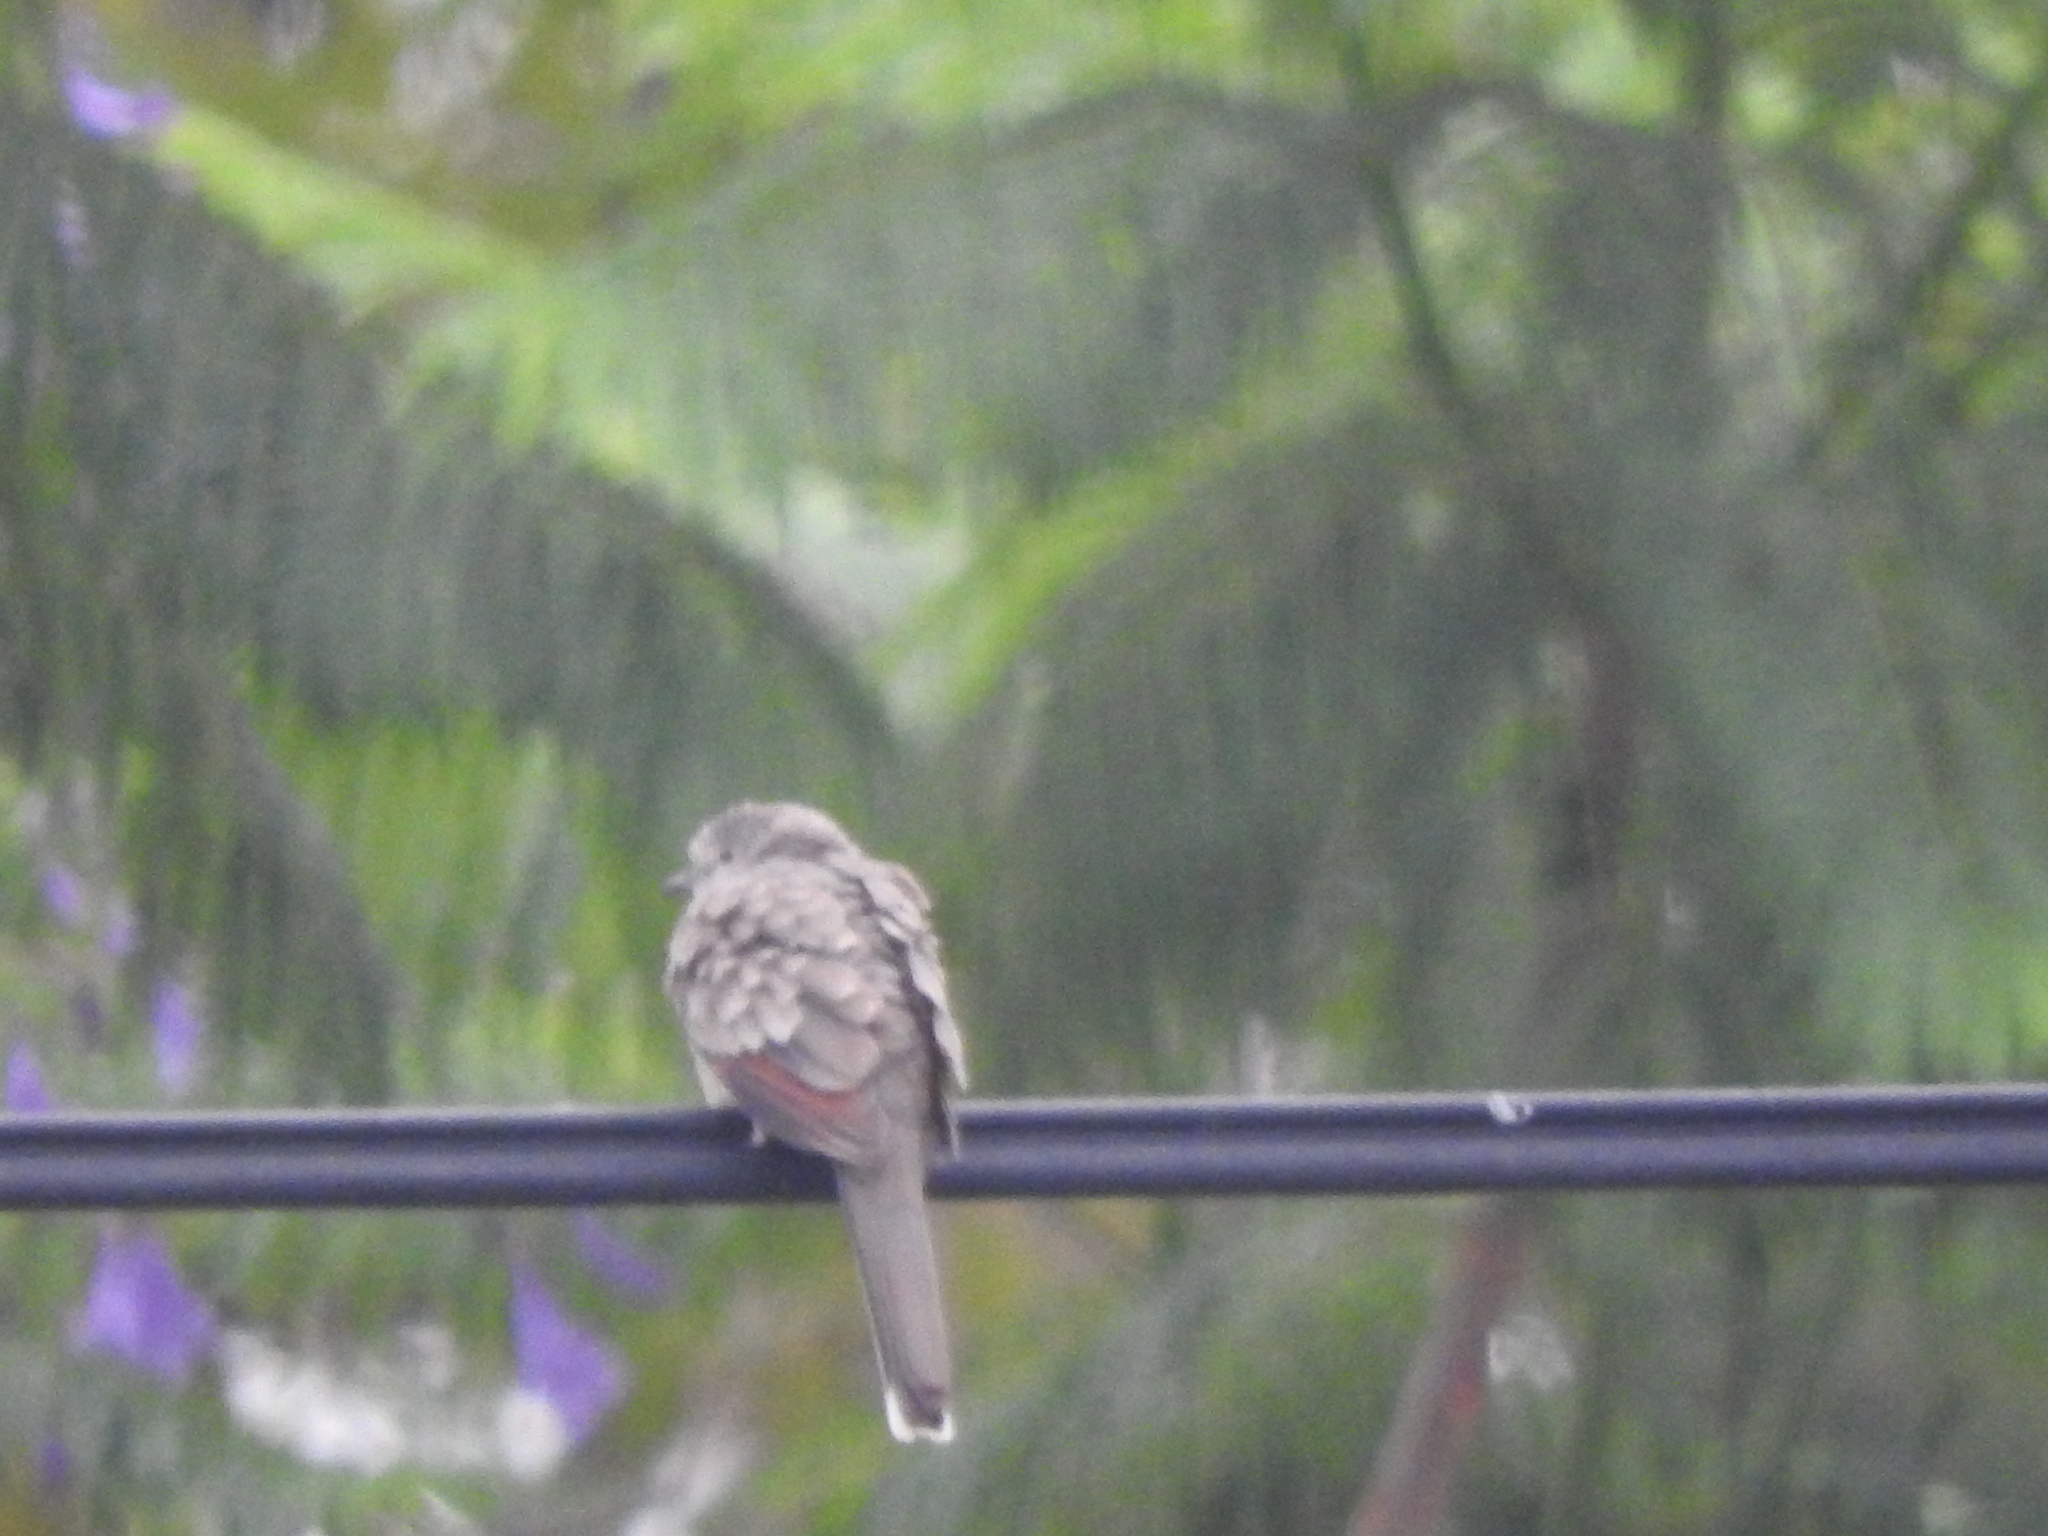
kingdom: Animalia
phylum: Chordata
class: Aves
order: Columbiformes
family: Columbidae
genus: Columbina
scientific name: Columbina inca
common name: Inca dove
